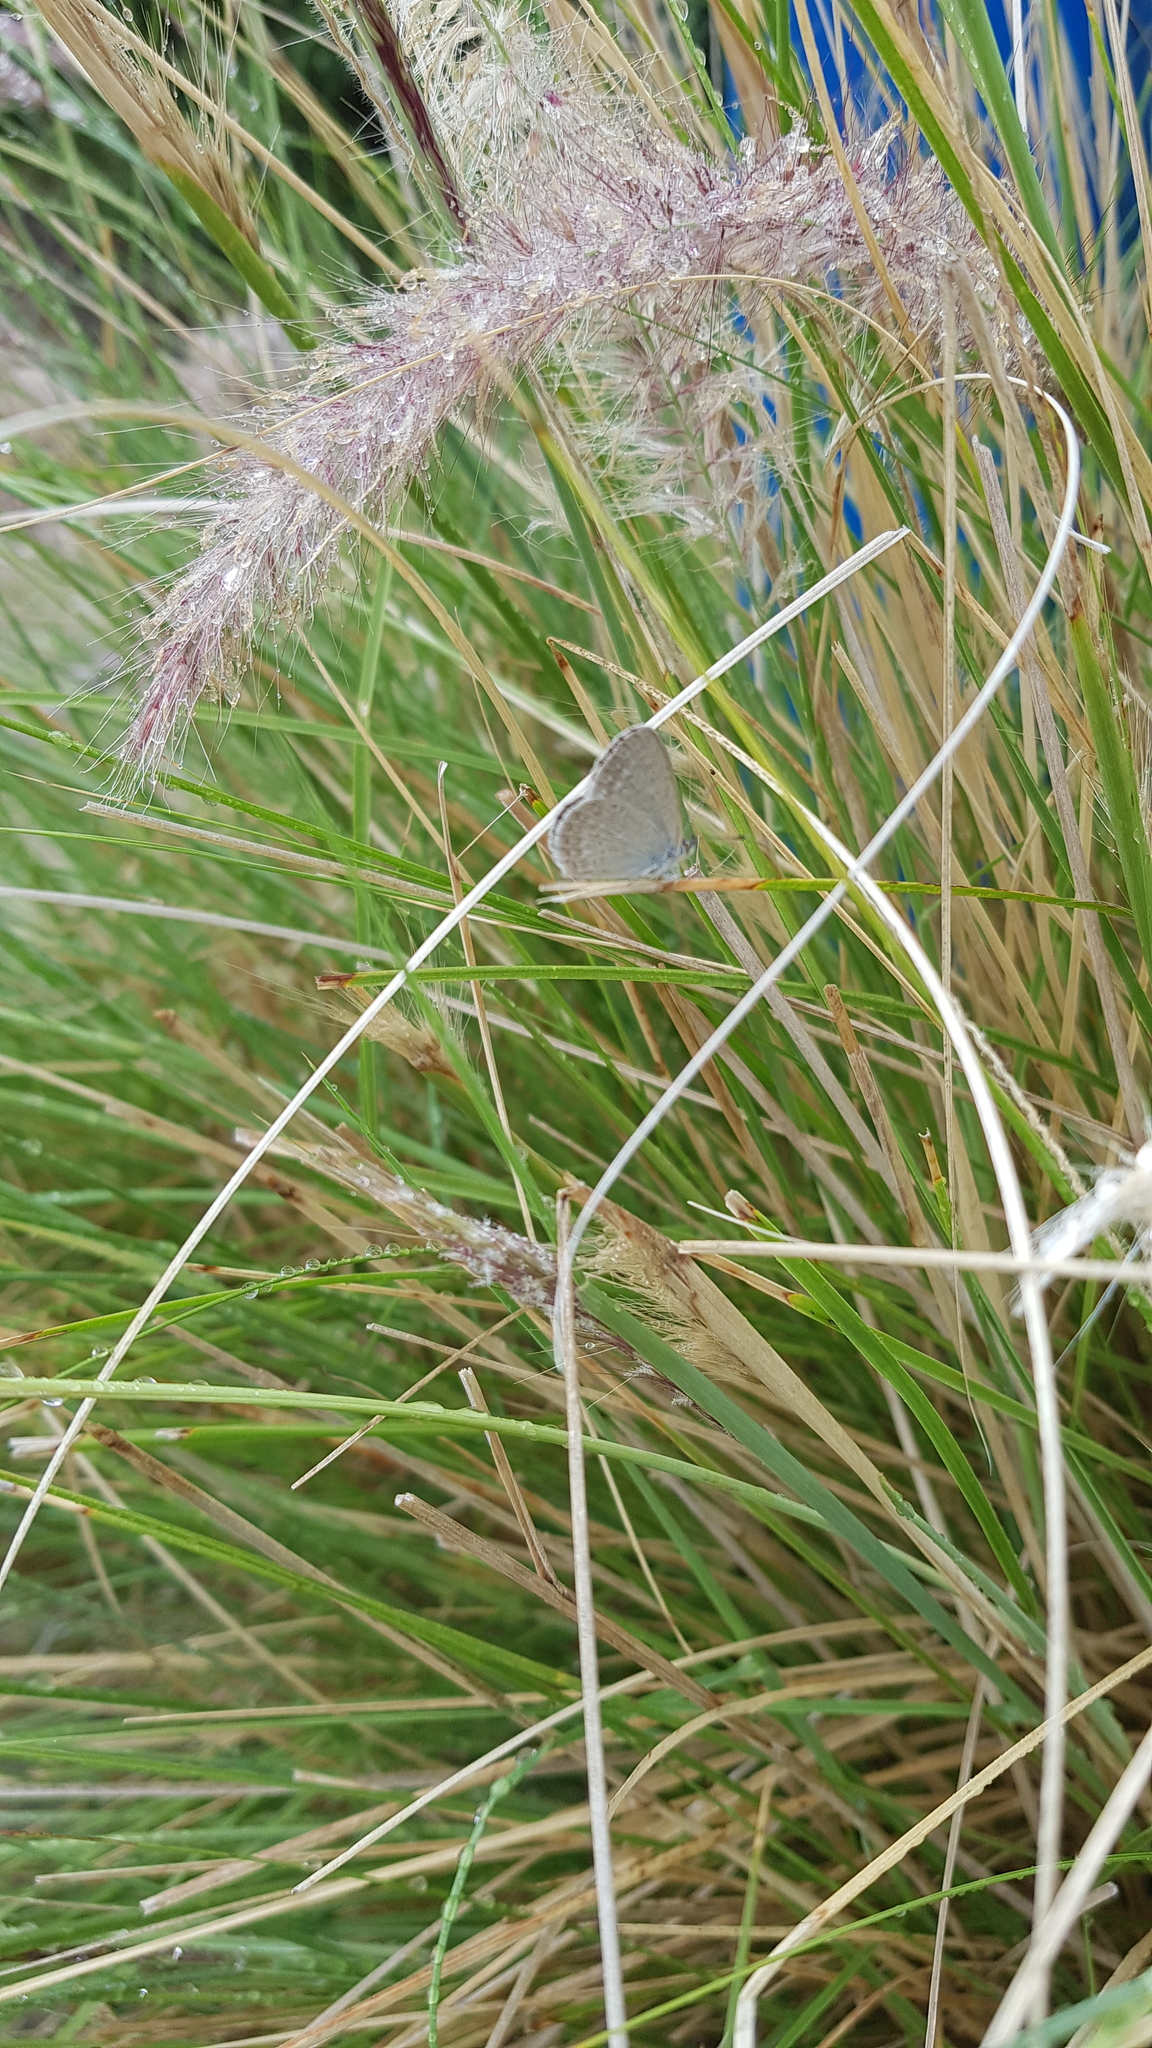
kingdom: Animalia
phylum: Arthropoda
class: Insecta
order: Lepidoptera
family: Lycaenidae
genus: Zizina
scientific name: Zizina labradus
